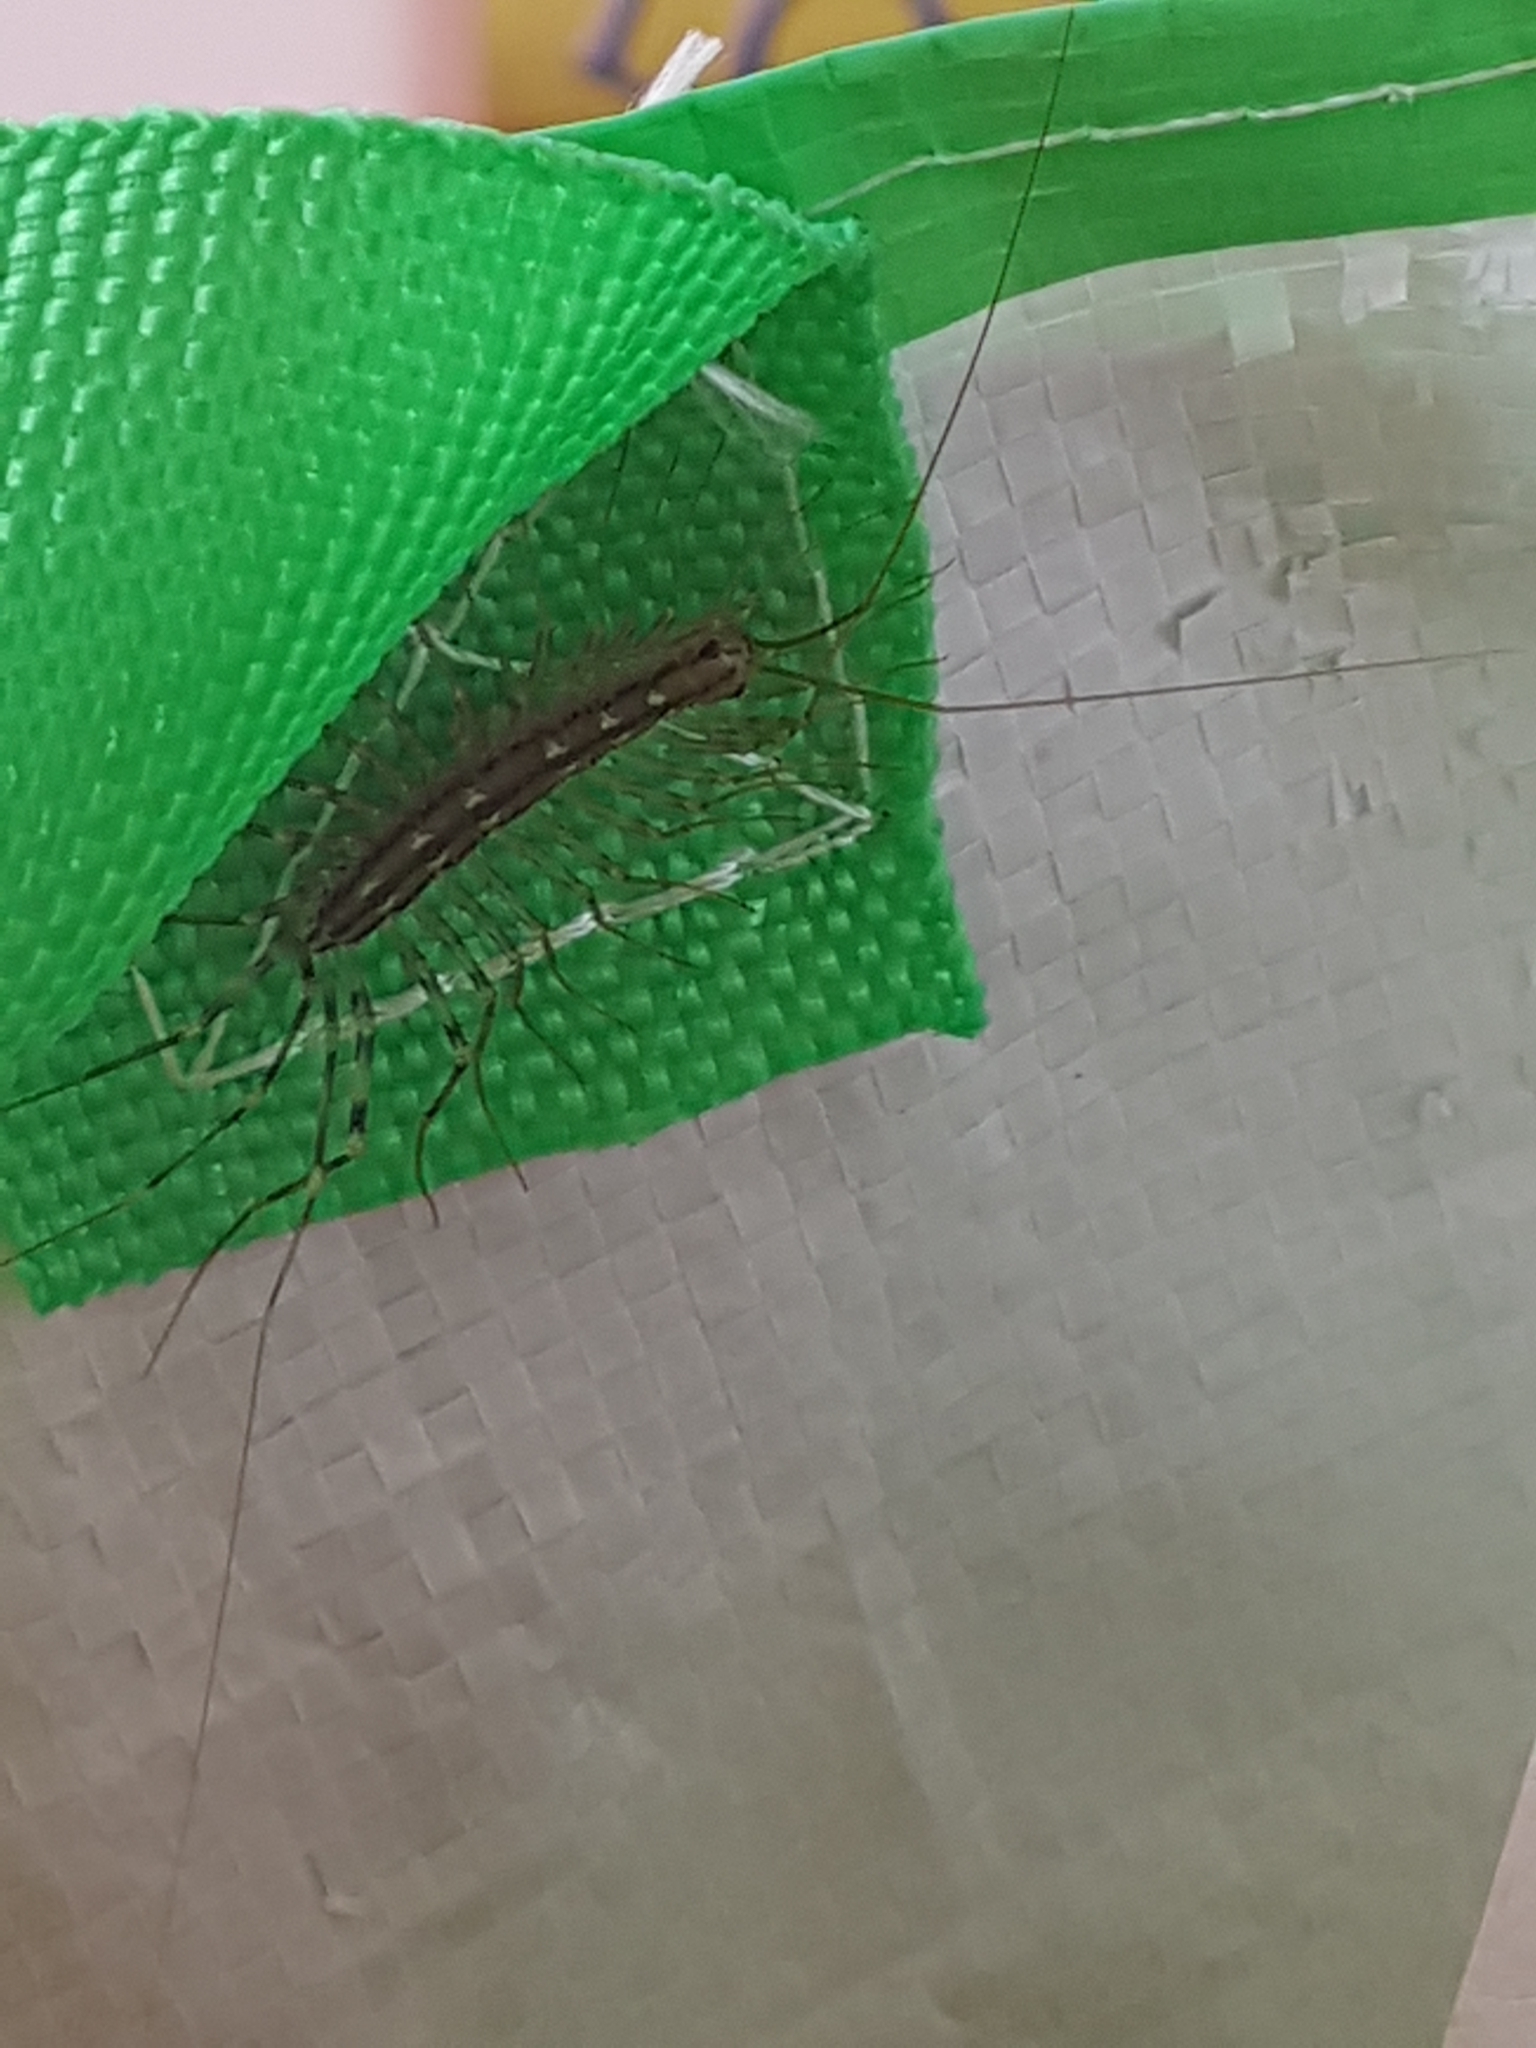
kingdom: Animalia
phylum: Arthropoda
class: Chilopoda
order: Scutigeromorpha
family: Scutigeridae
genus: Scutigera
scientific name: Scutigera coleoptrata
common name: House centipede
